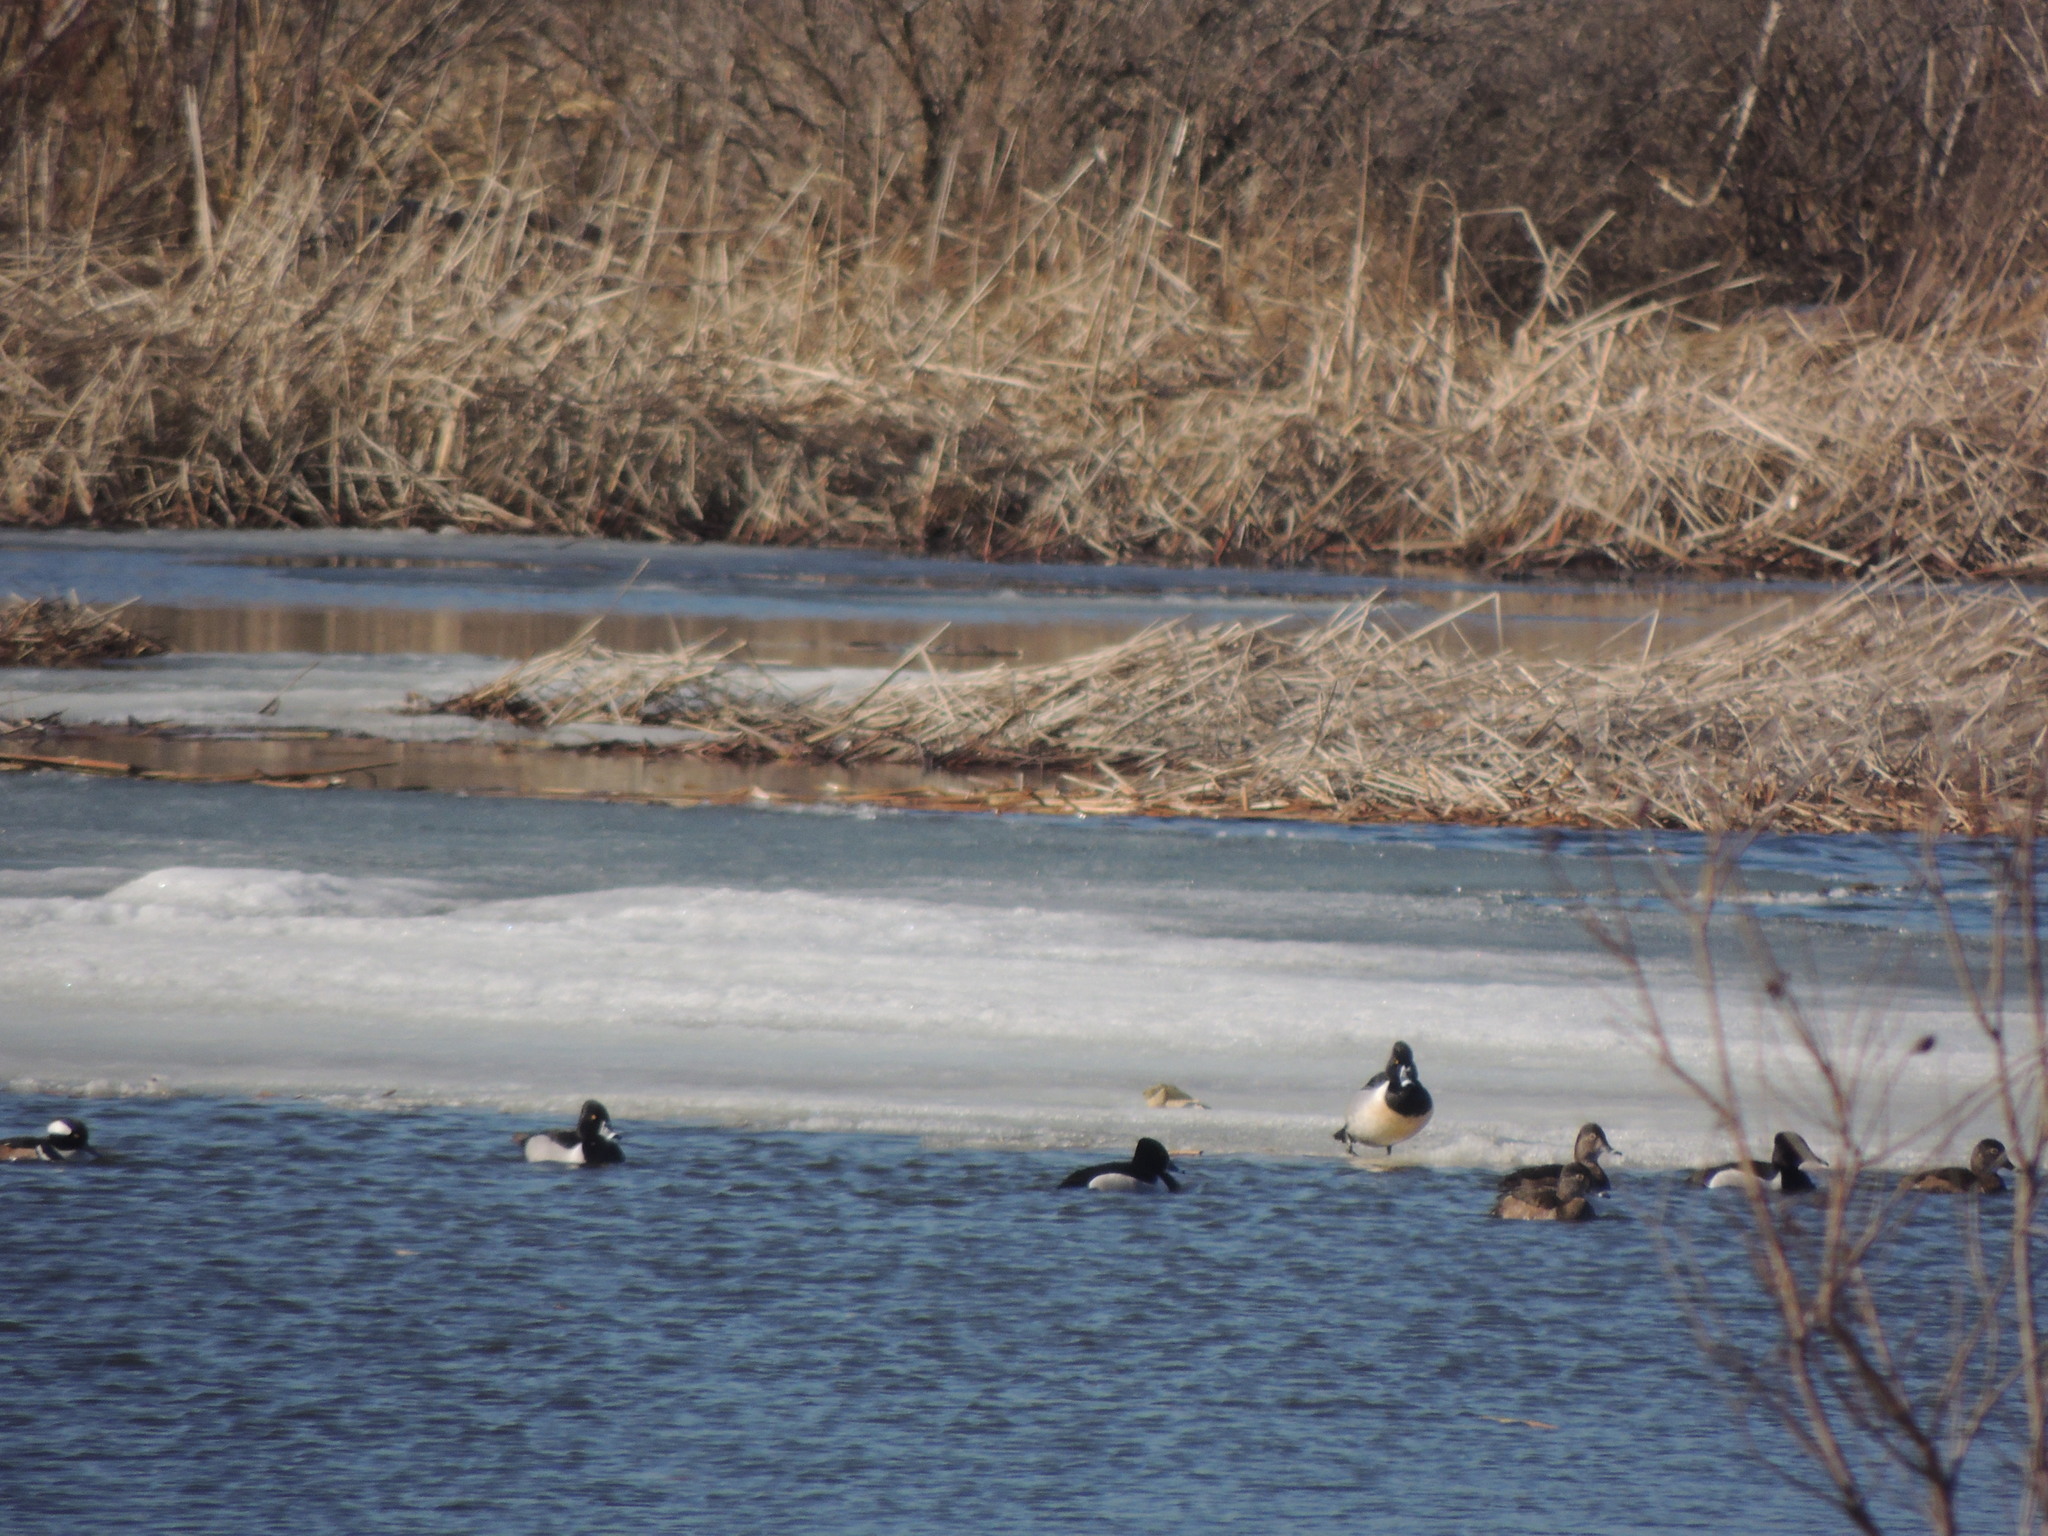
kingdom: Animalia
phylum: Chordata
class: Aves
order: Anseriformes
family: Anatidae
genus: Lophodytes
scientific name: Lophodytes cucullatus
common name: Hooded merganser
